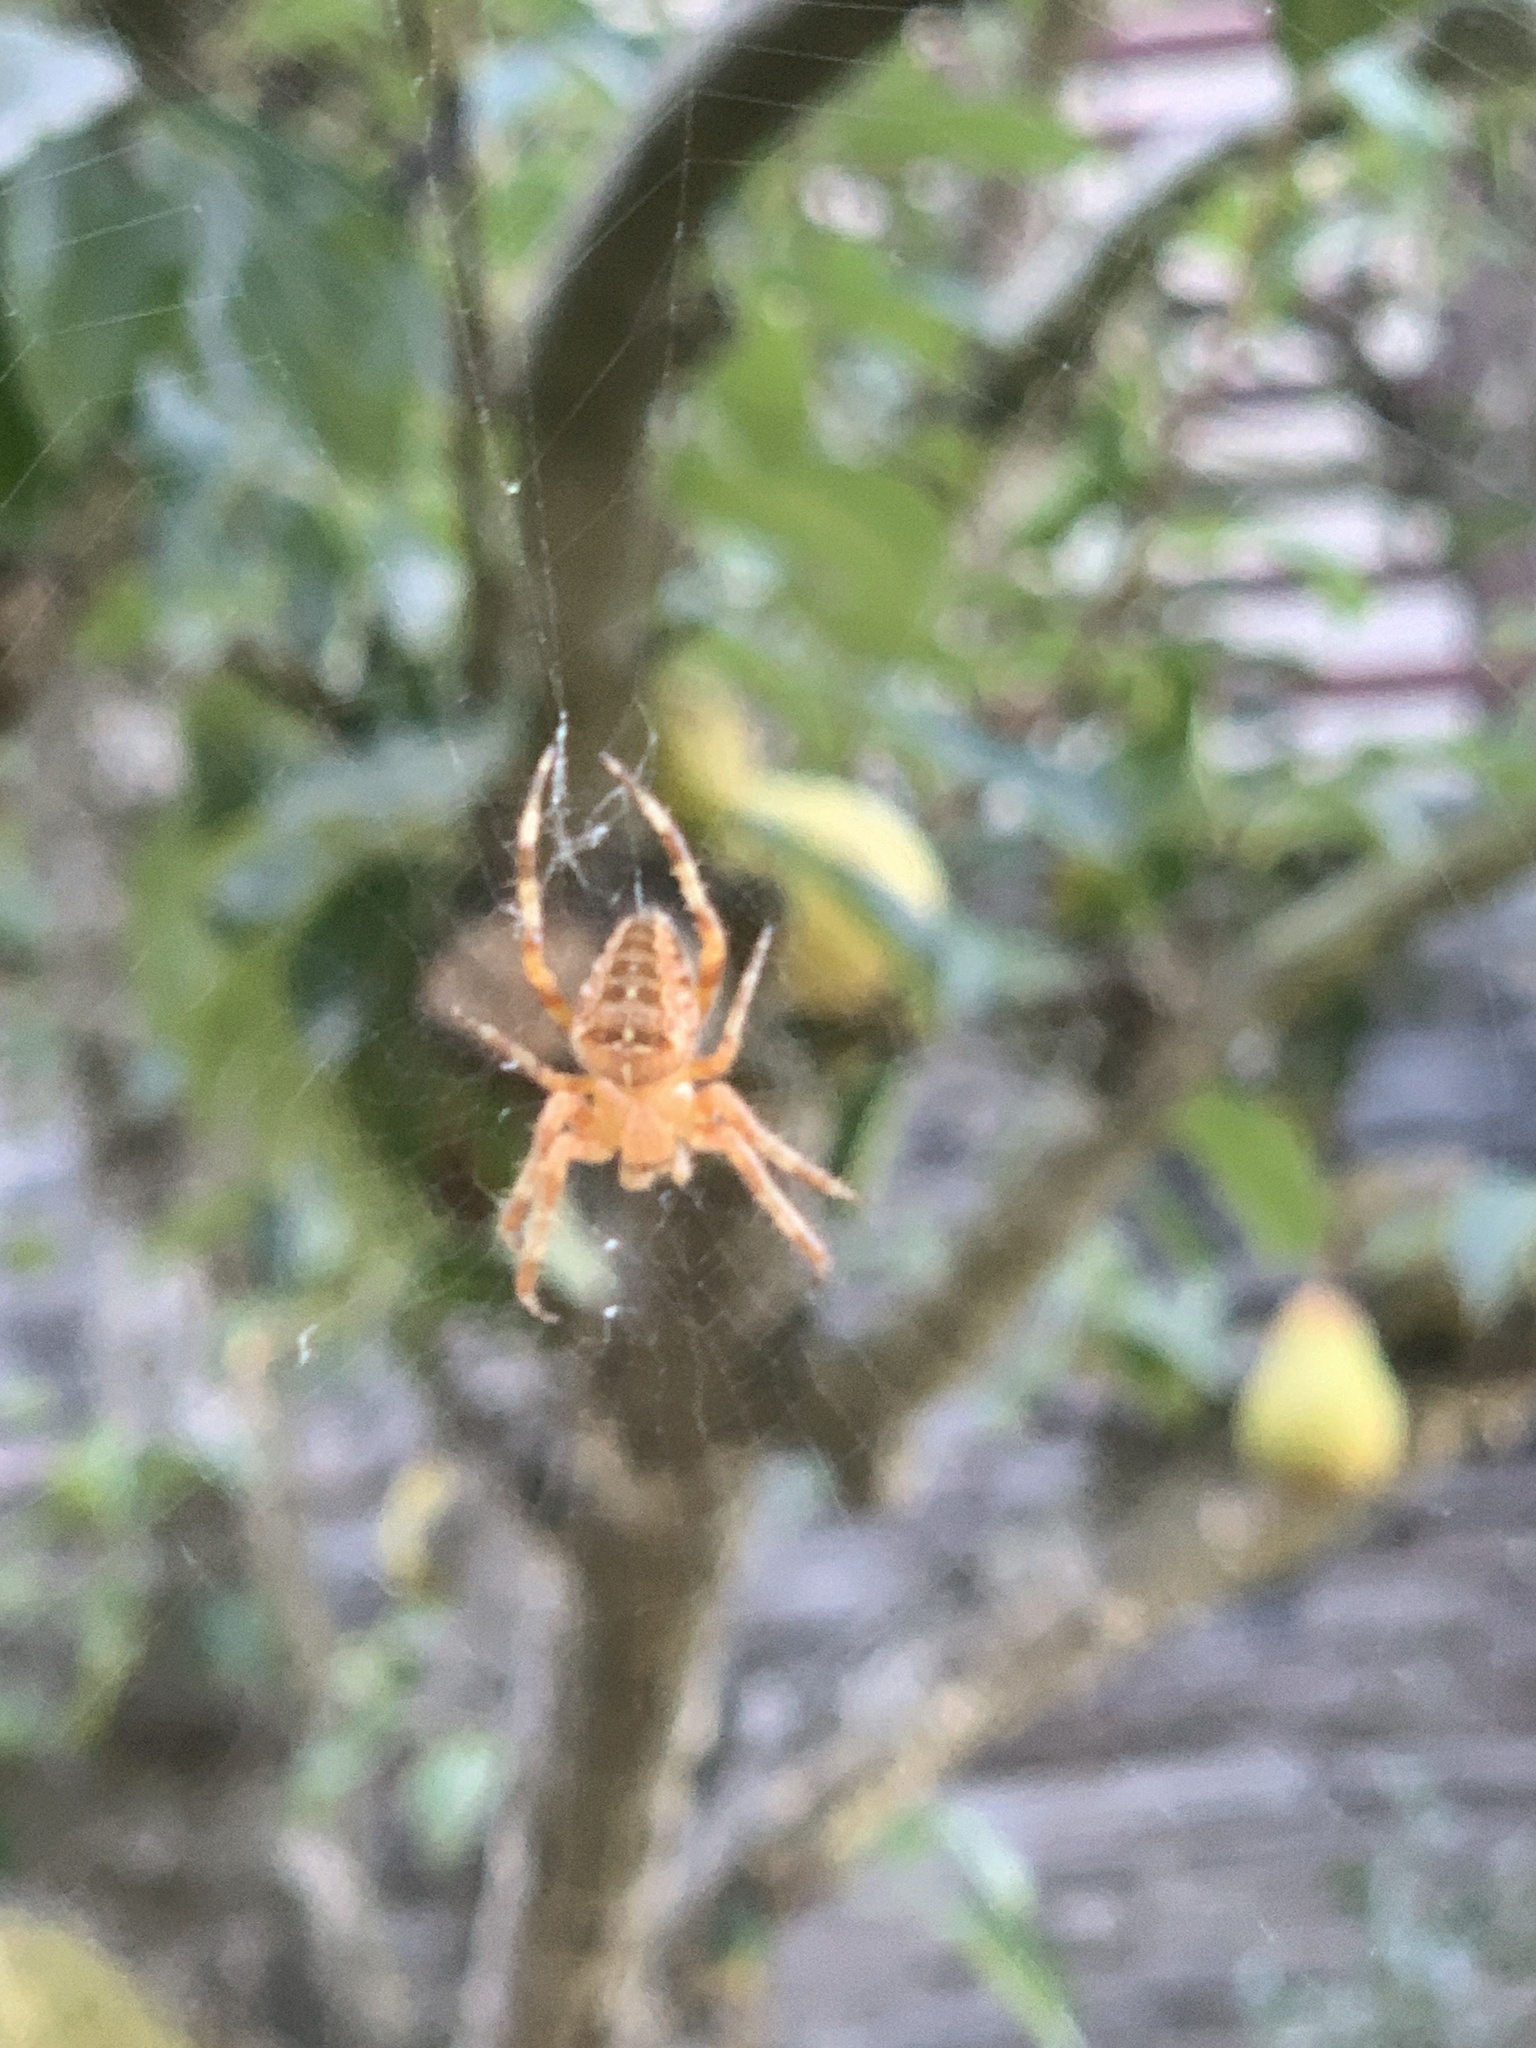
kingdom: Animalia
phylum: Arthropoda
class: Arachnida
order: Araneae
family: Araneidae
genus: Araneus
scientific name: Araneus diadematus
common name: Cross orbweaver
